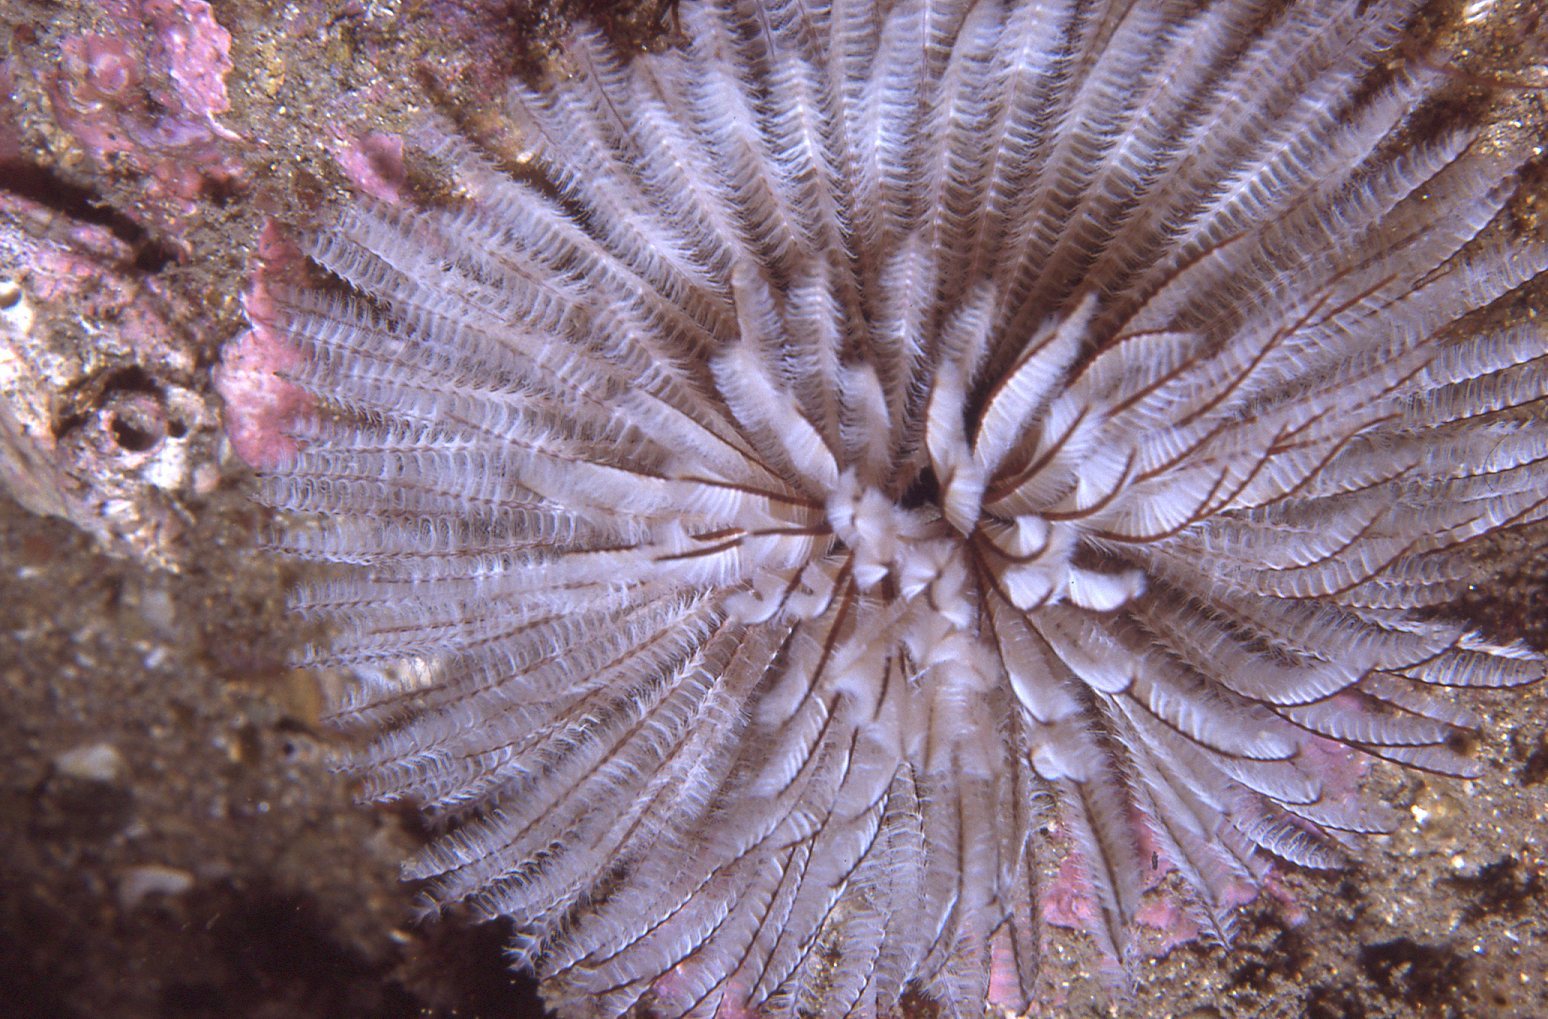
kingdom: Animalia
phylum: Annelida
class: Polychaeta
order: Sabellida
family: Sabellidae
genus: Sabellastarte
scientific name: Sabellastarte australiensis
